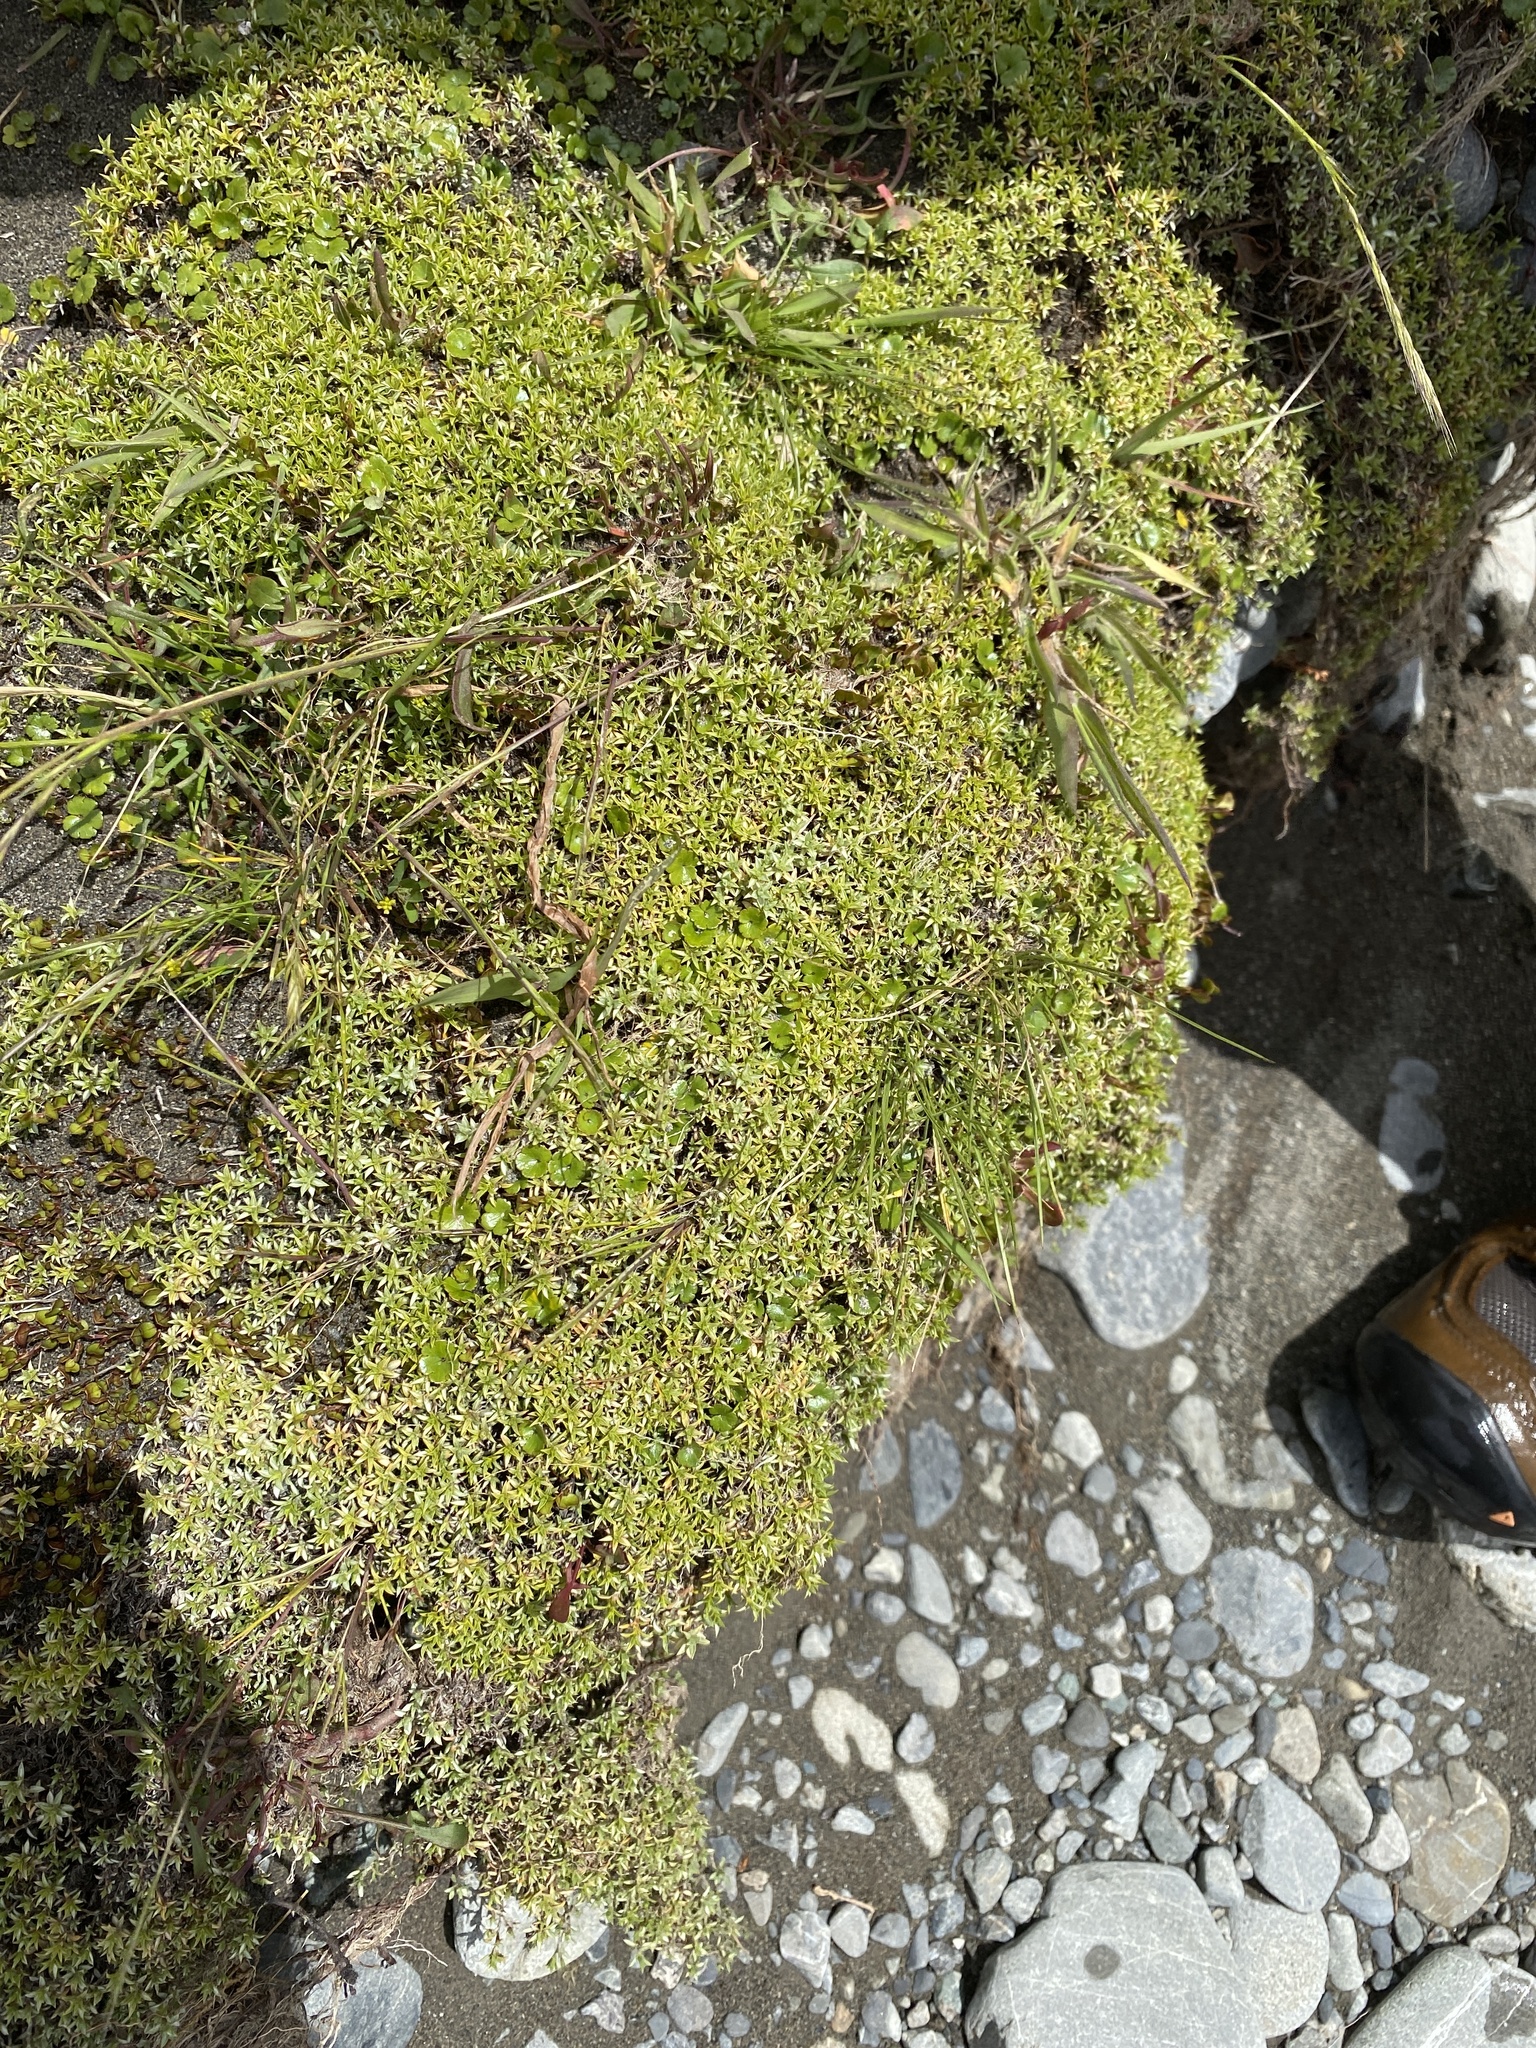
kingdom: Plantae
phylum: Tracheophyta
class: Magnoliopsida
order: Asterales
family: Asteraceae
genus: Raoulia
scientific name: Raoulia tenuicaulis
